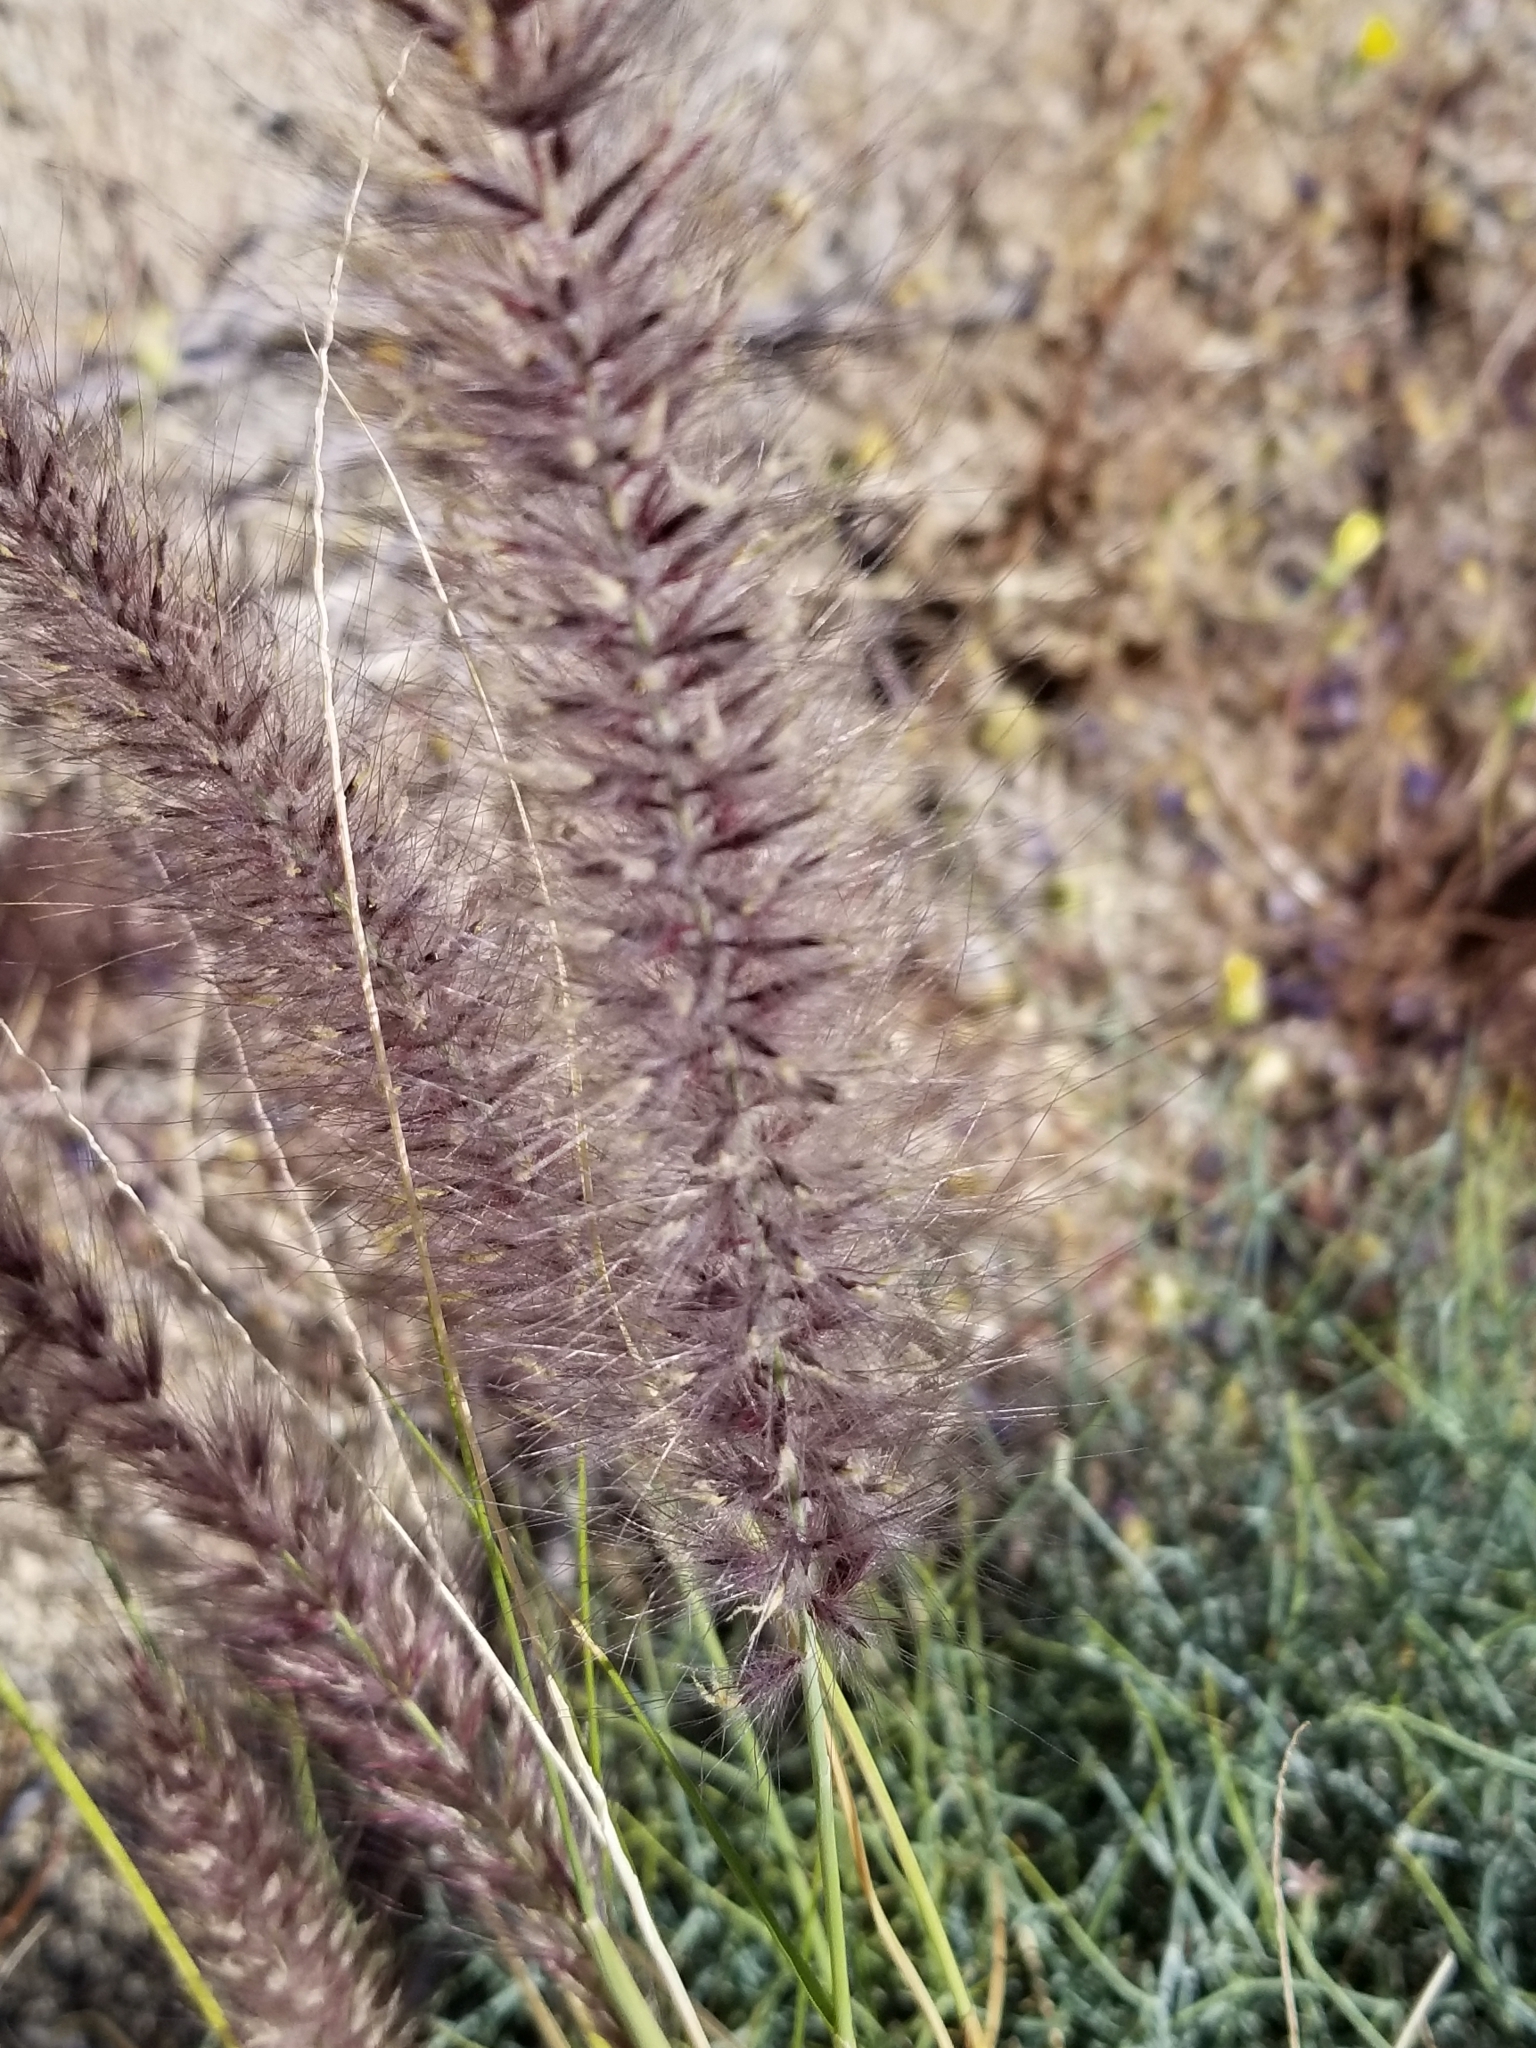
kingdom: Plantae
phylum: Tracheophyta
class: Liliopsida
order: Poales
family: Poaceae
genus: Cenchrus
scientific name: Cenchrus setaceus
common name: Crimson fountaingrass
